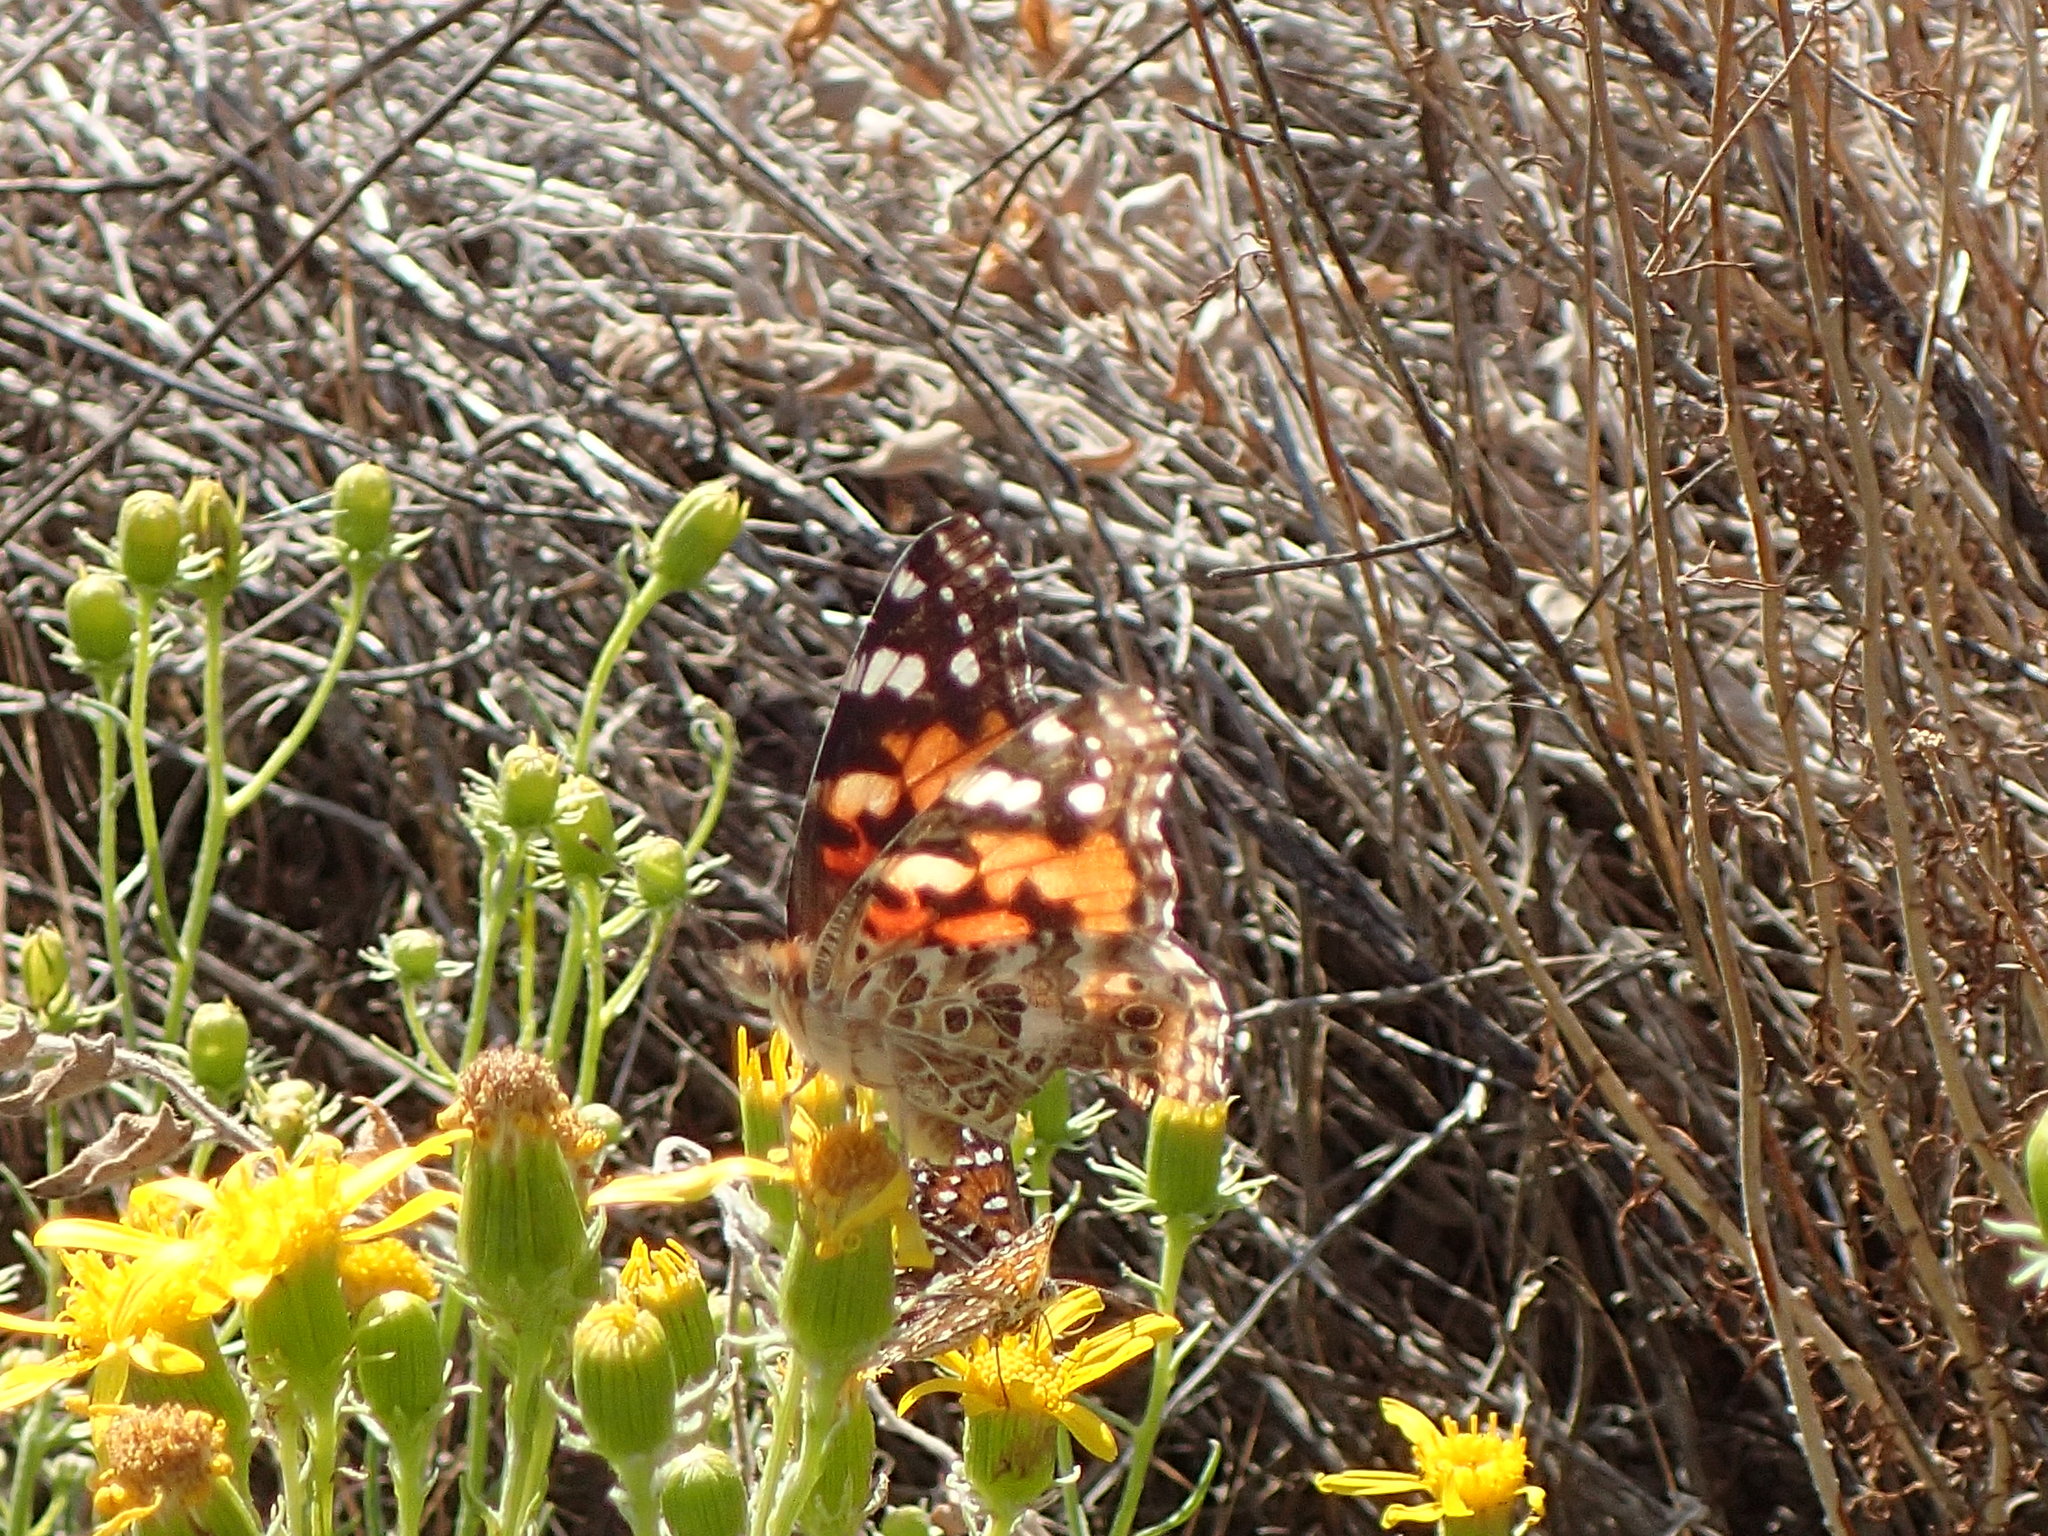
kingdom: Animalia
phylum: Arthropoda
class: Insecta
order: Lepidoptera
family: Nymphalidae
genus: Vanessa
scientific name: Vanessa cardui
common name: Painted lady
